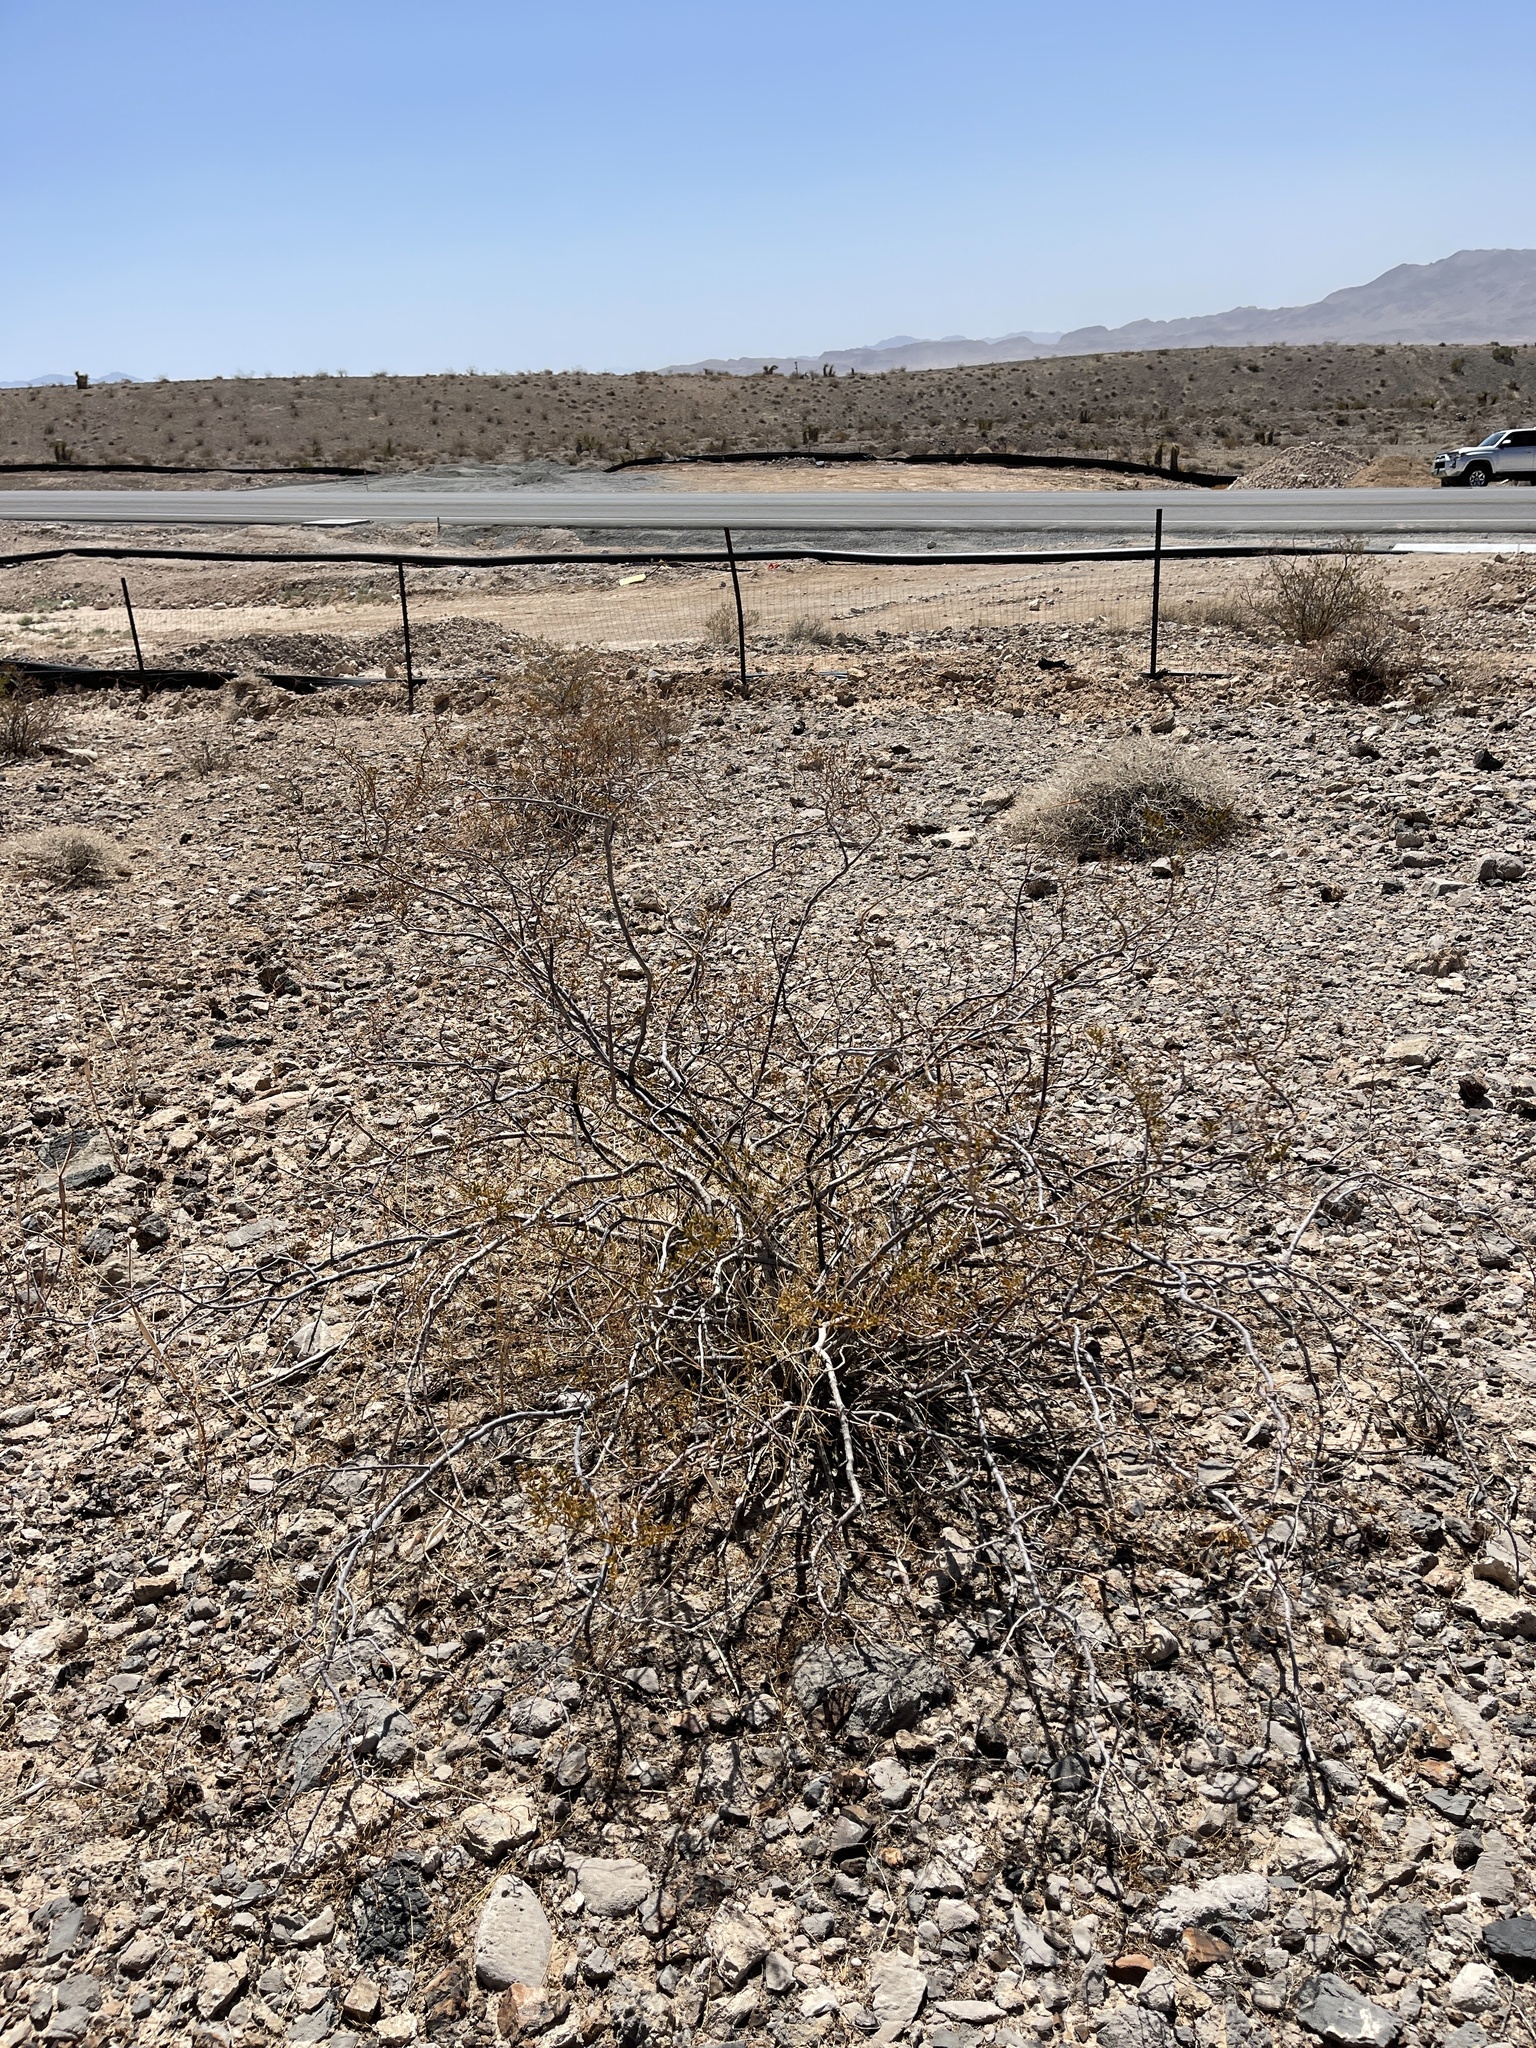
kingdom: Plantae
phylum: Tracheophyta
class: Magnoliopsida
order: Zygophyllales
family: Zygophyllaceae
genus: Larrea
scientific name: Larrea tridentata
